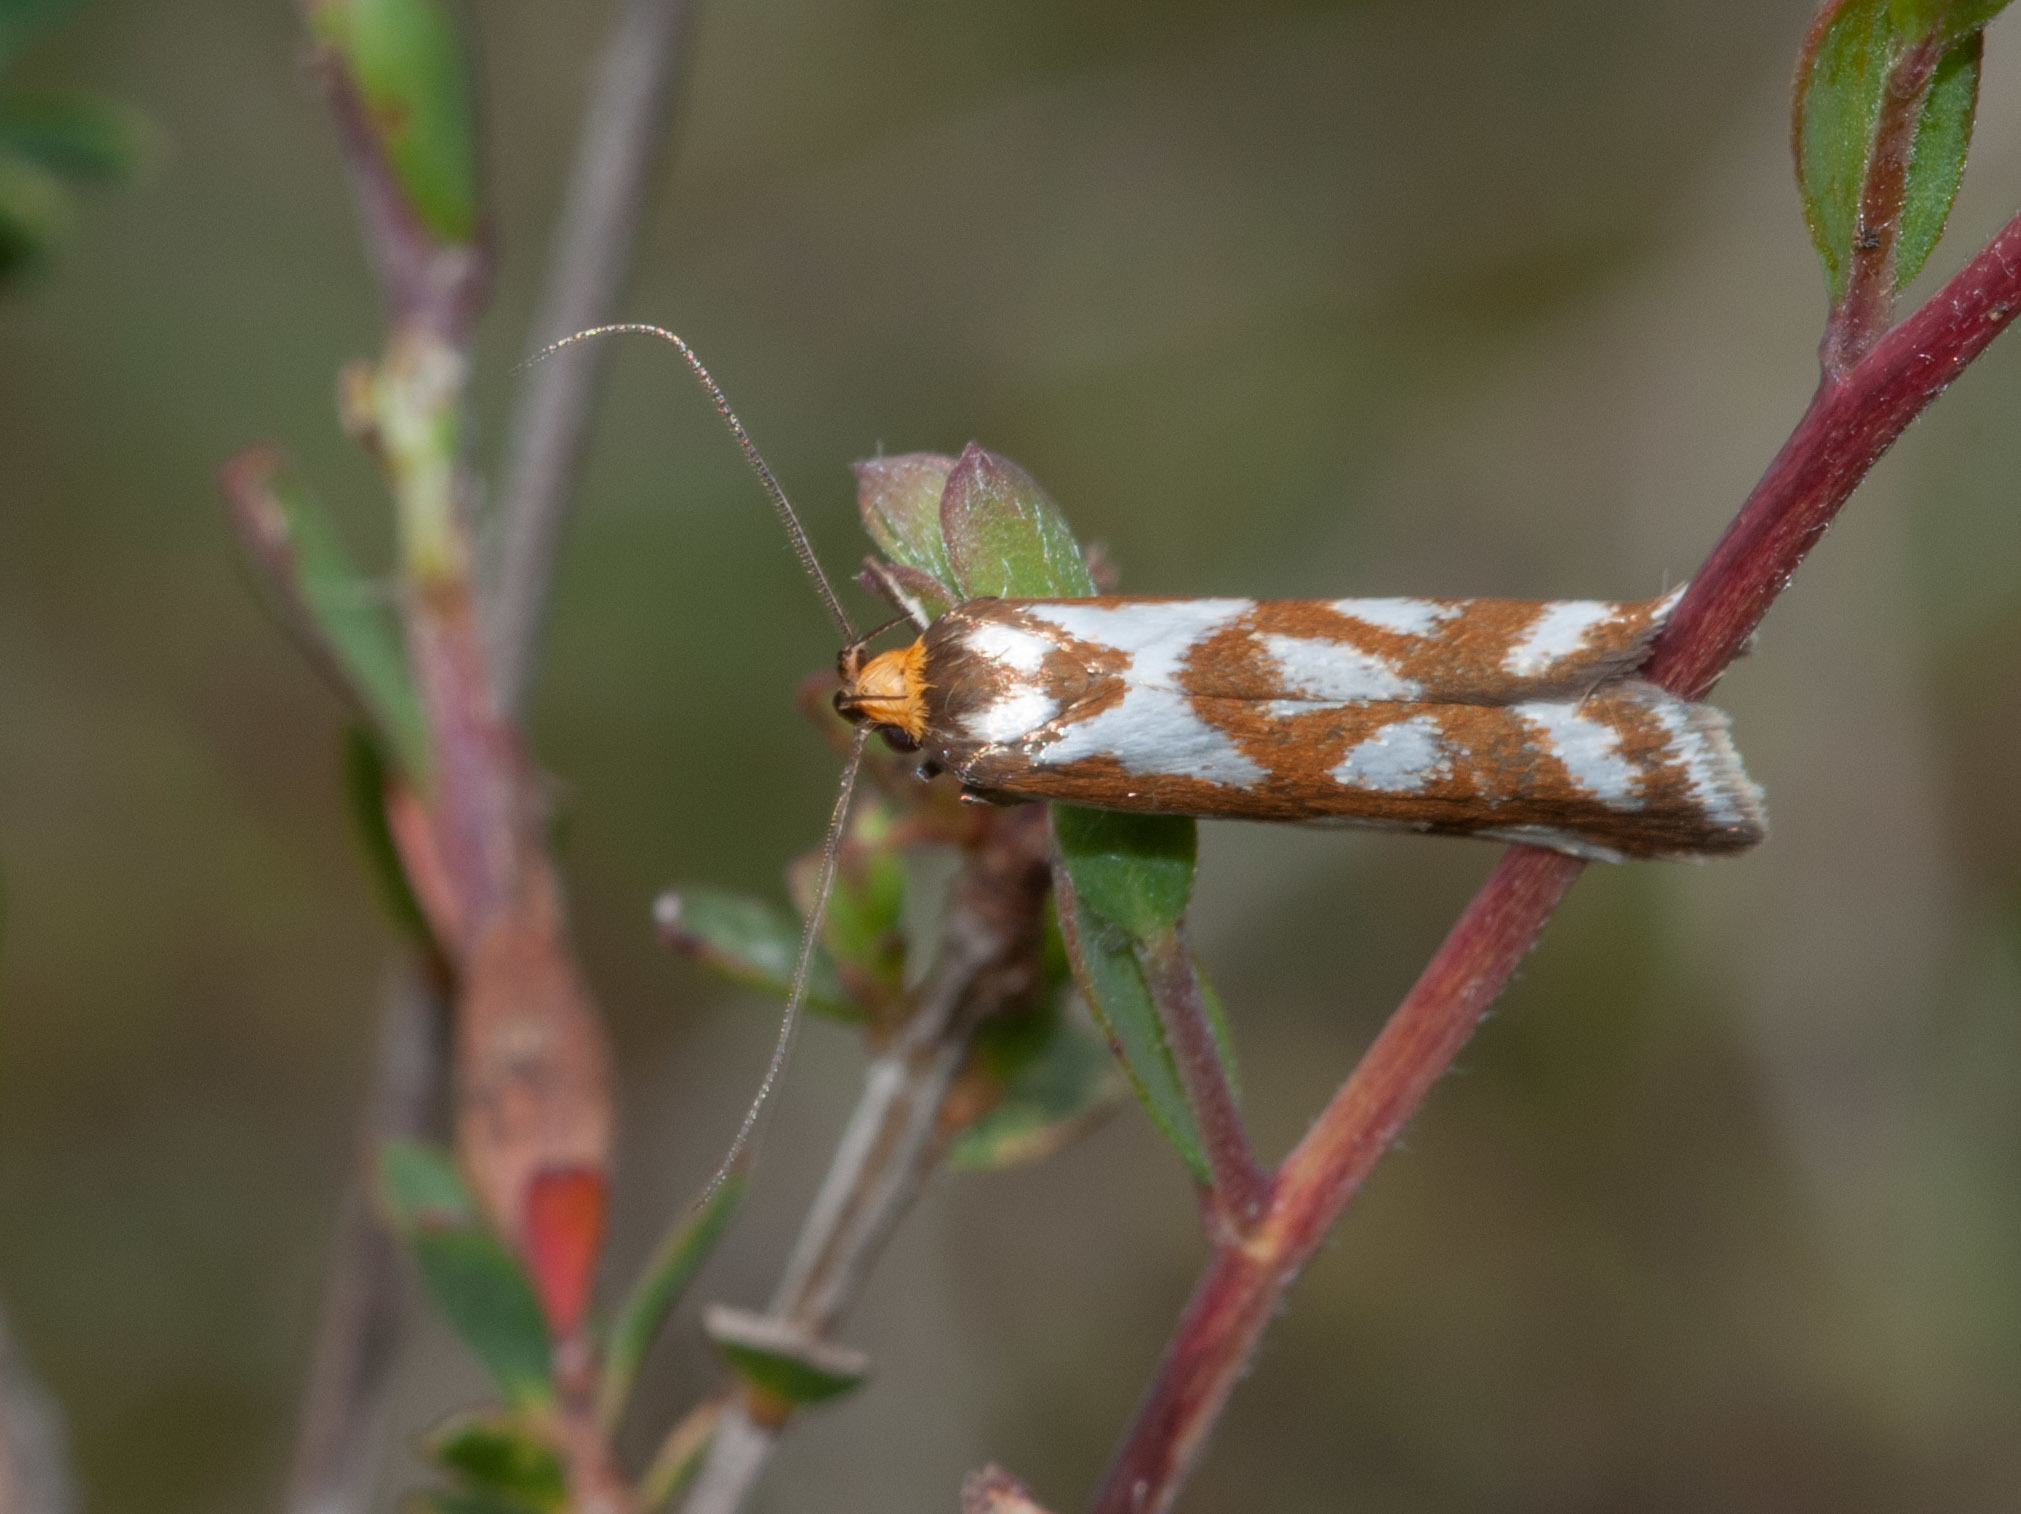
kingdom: Animalia
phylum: Arthropoda
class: Insecta
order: Lepidoptera
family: Oecophoridae
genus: Myrascia
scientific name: Myrascia bracteatella
